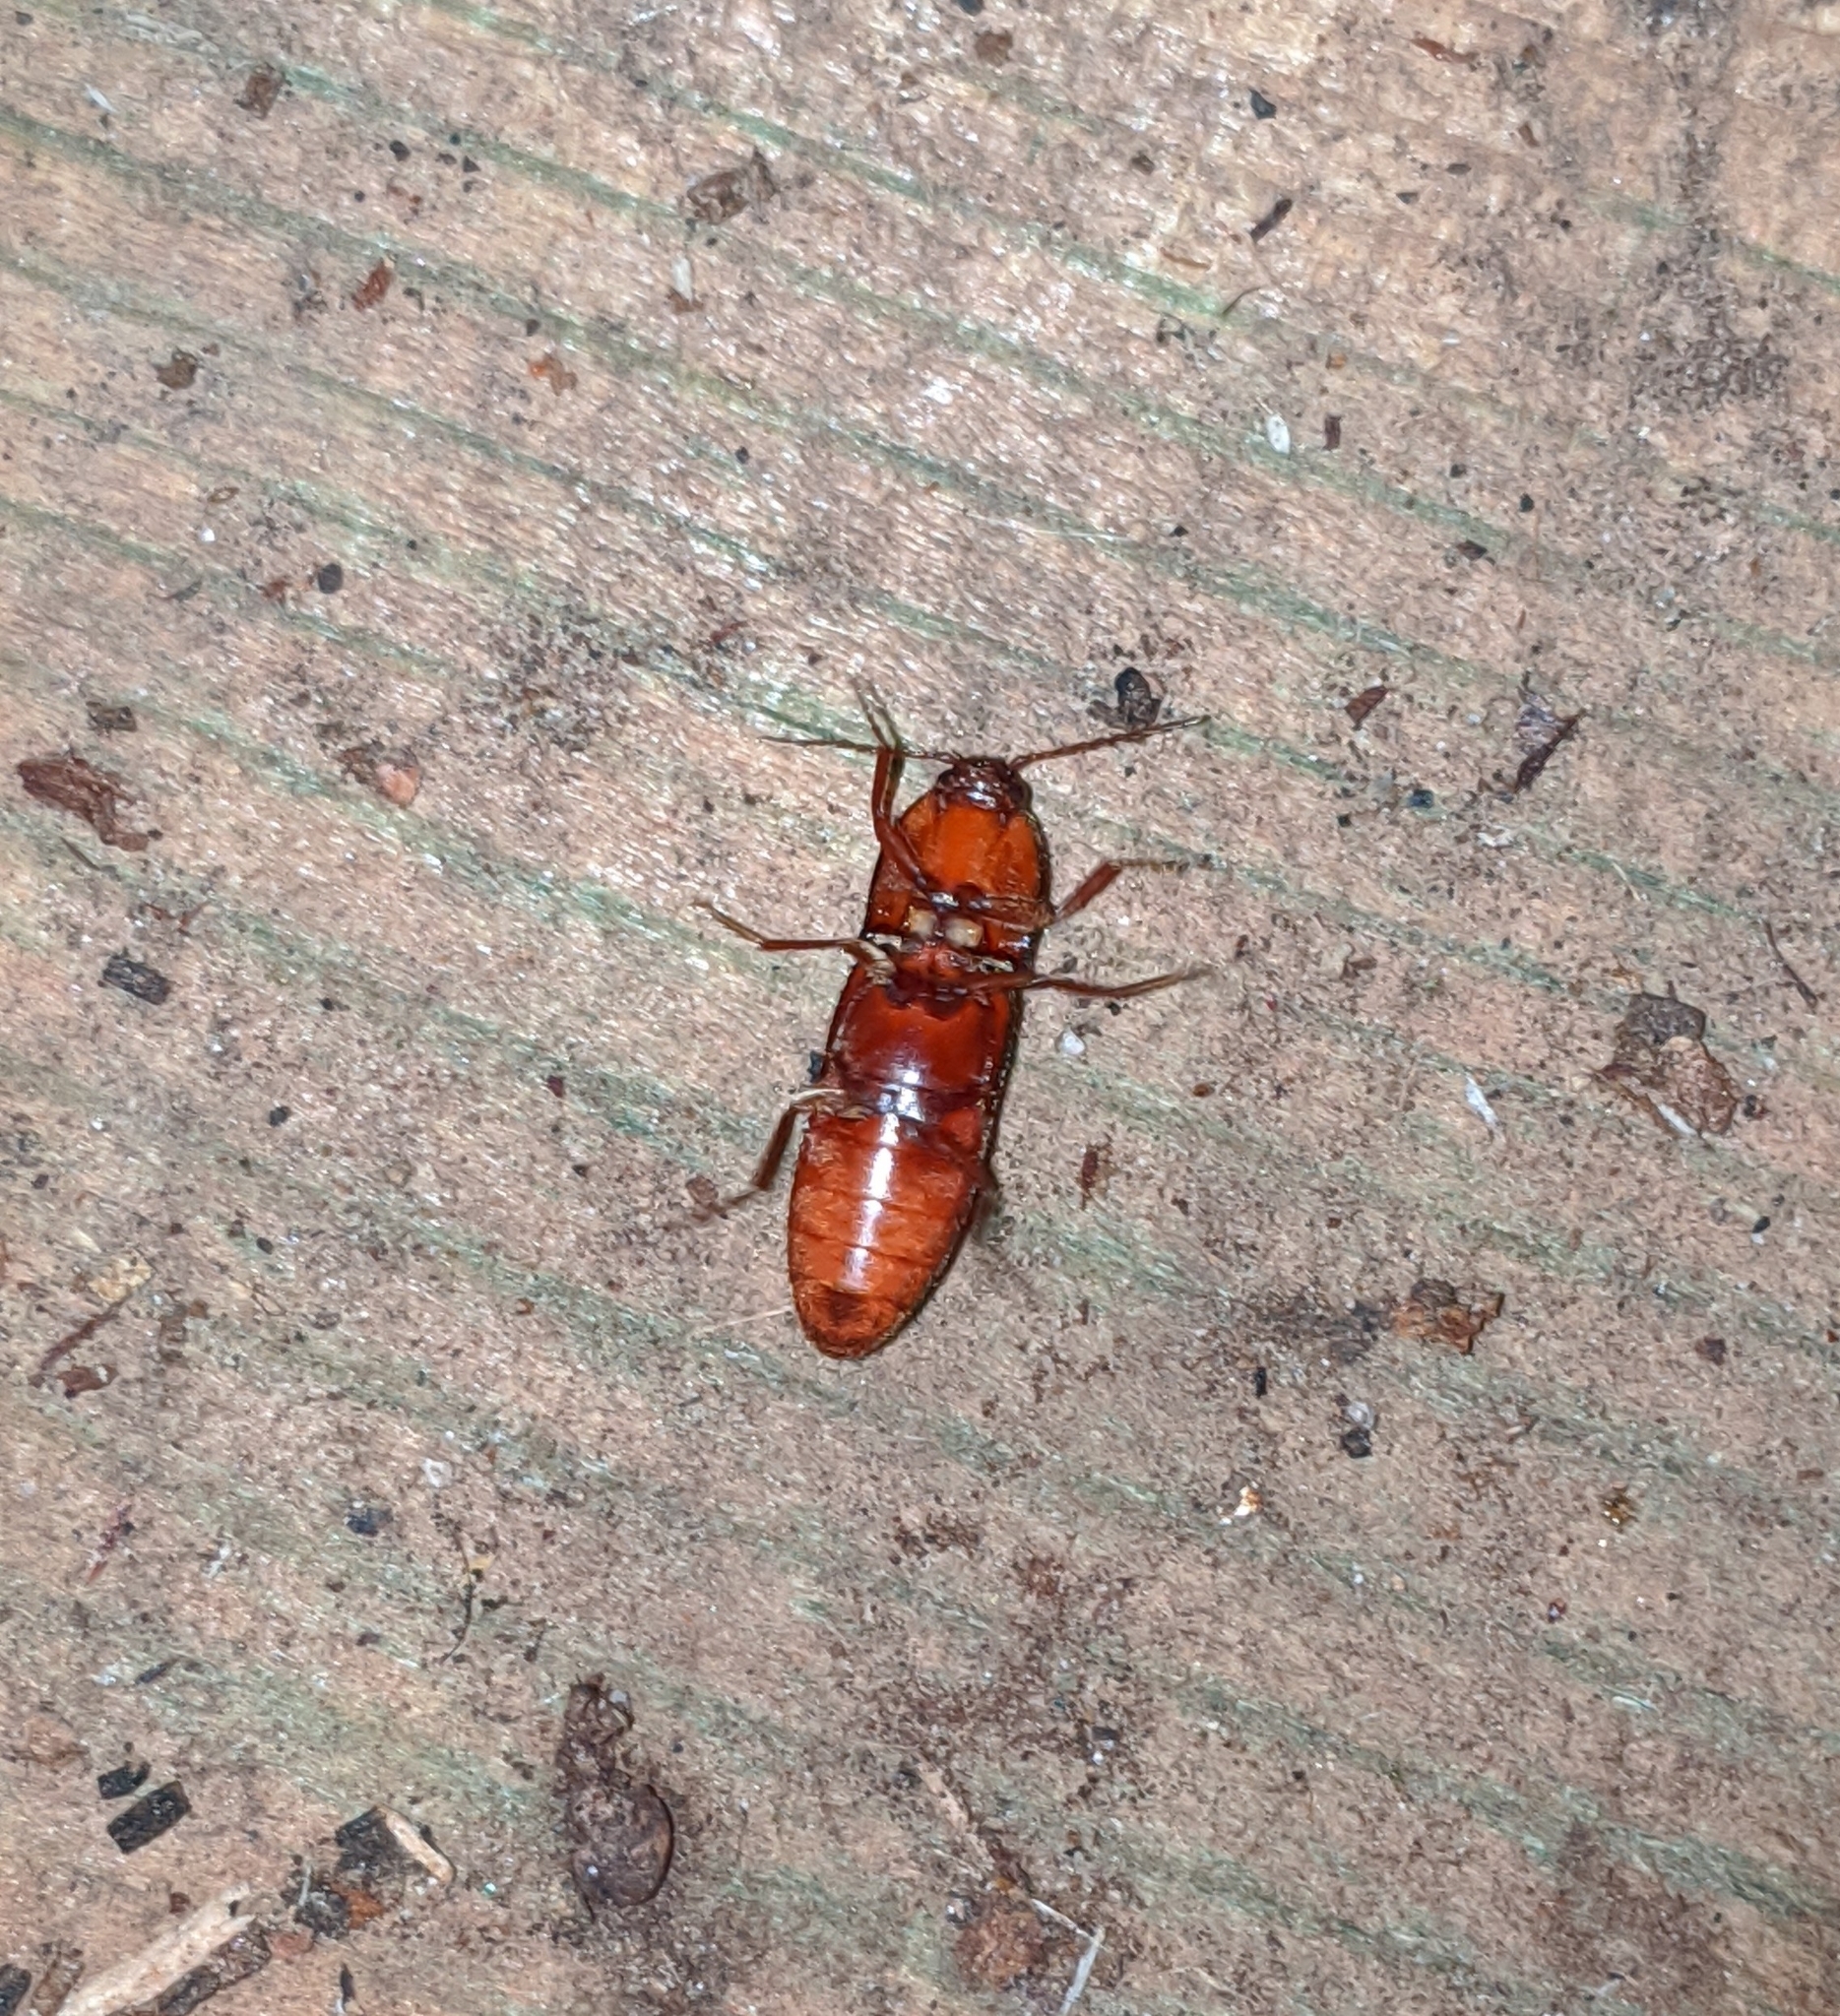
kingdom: Animalia
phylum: Arthropoda
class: Insecta
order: Coleoptera
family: Elateridae
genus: Ampedus
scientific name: Ampedus rhodopus
